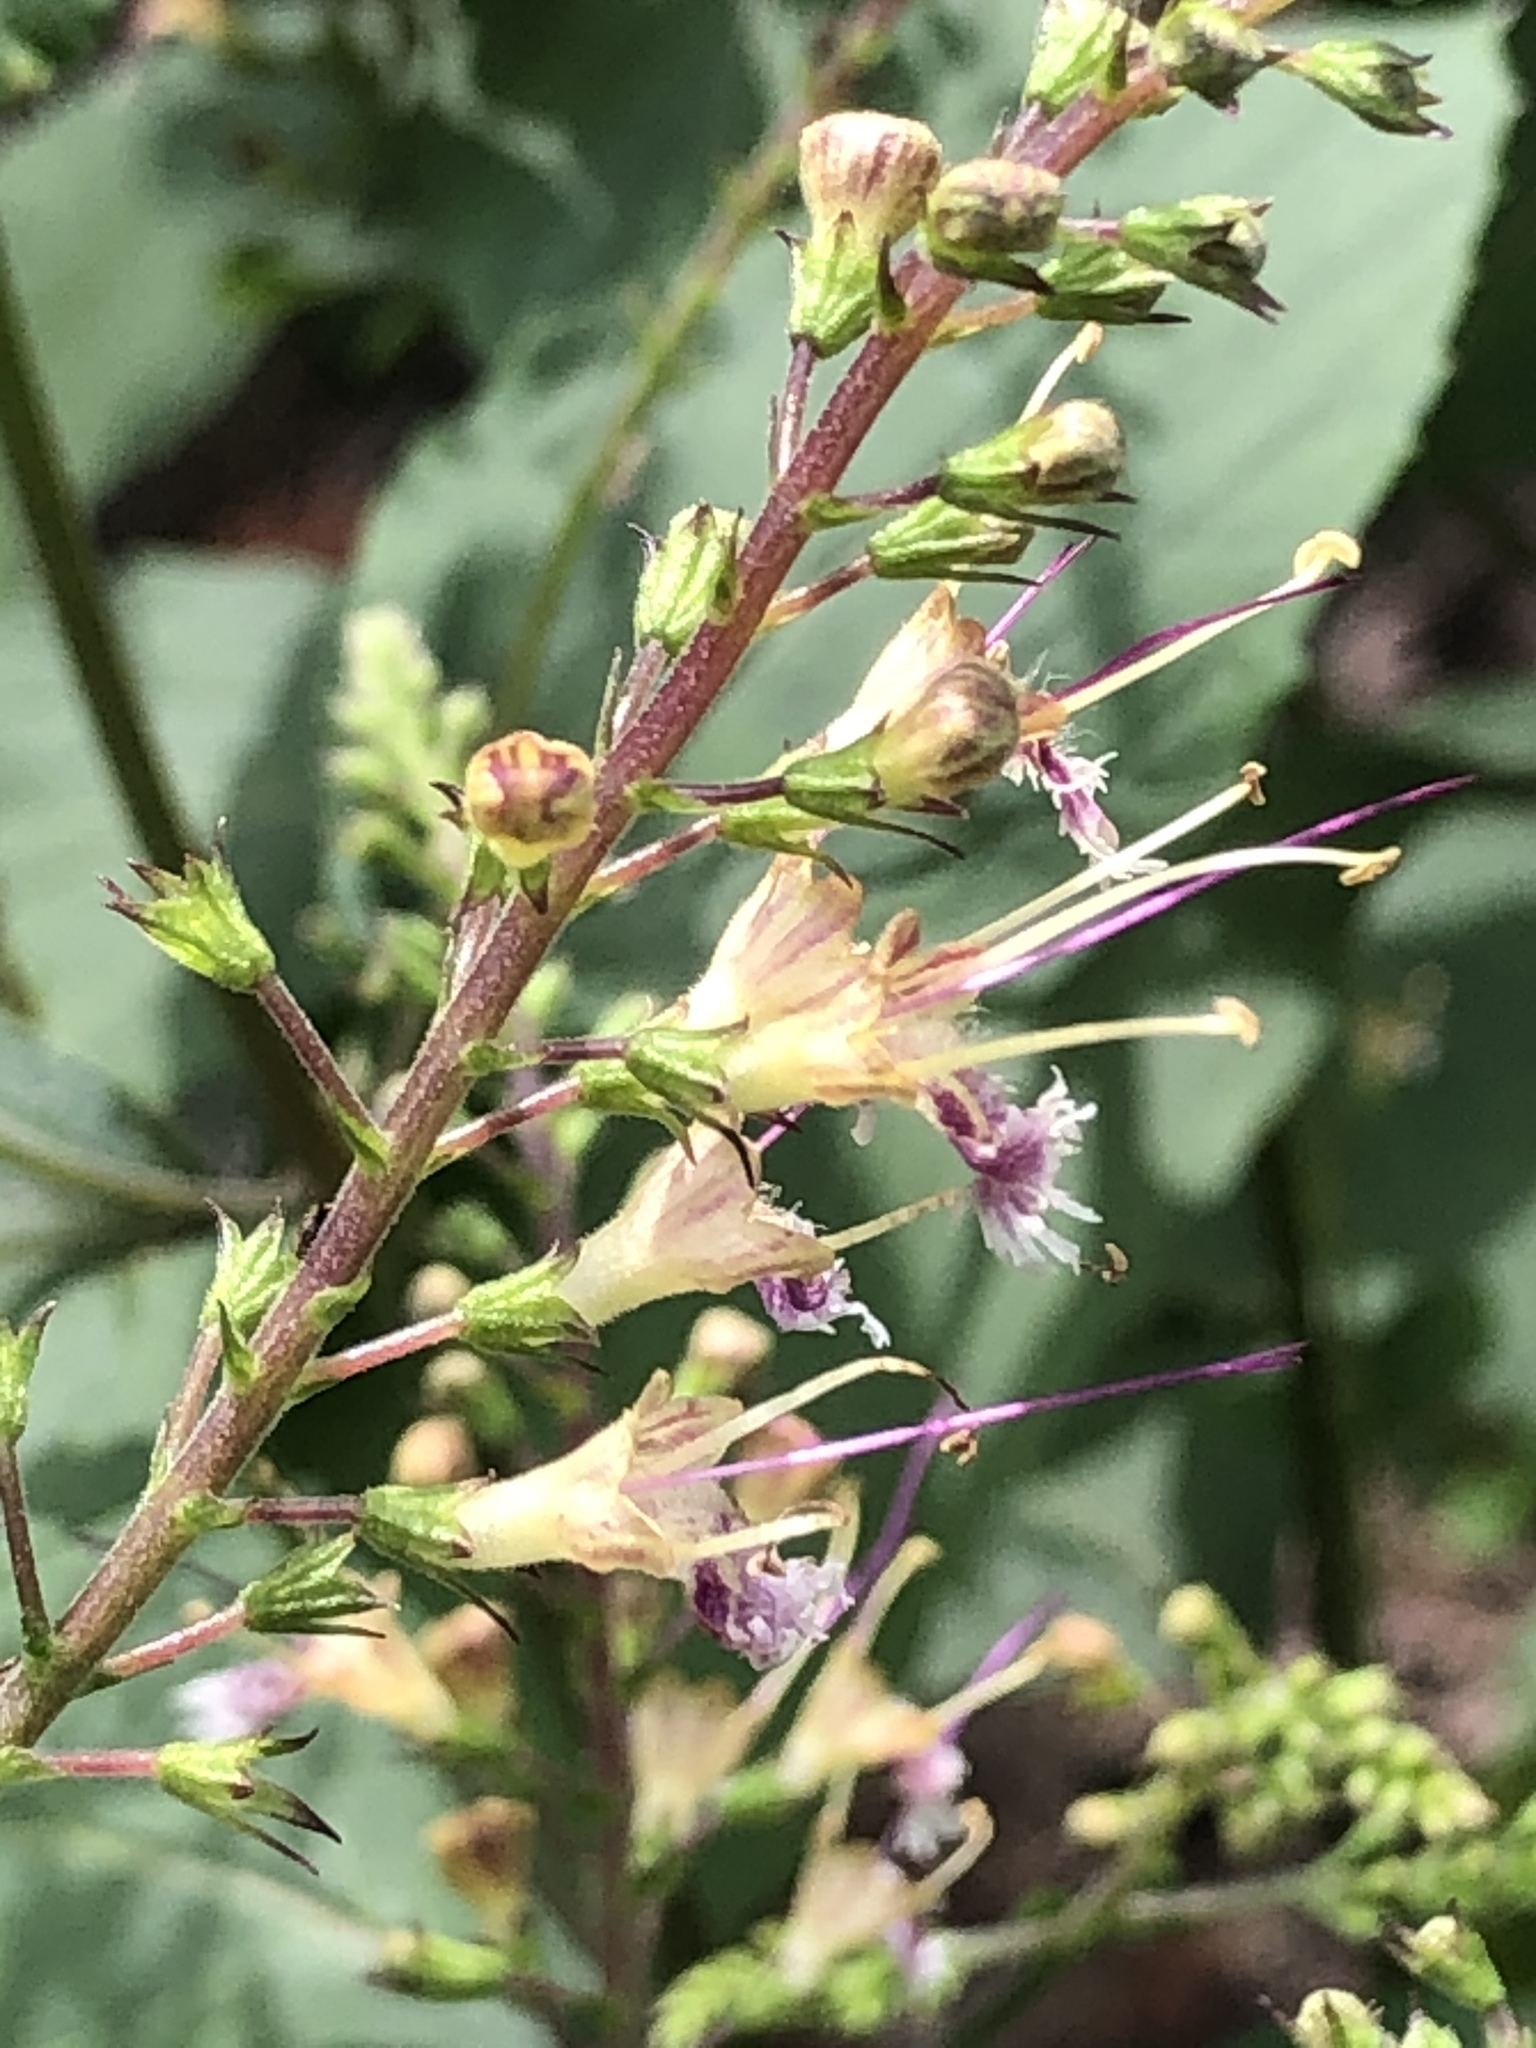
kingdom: Plantae
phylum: Tracheophyta
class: Magnoliopsida
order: Lamiales
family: Lamiaceae
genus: Collinsonia
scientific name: Collinsonia canadensis
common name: Northern horsebalm
